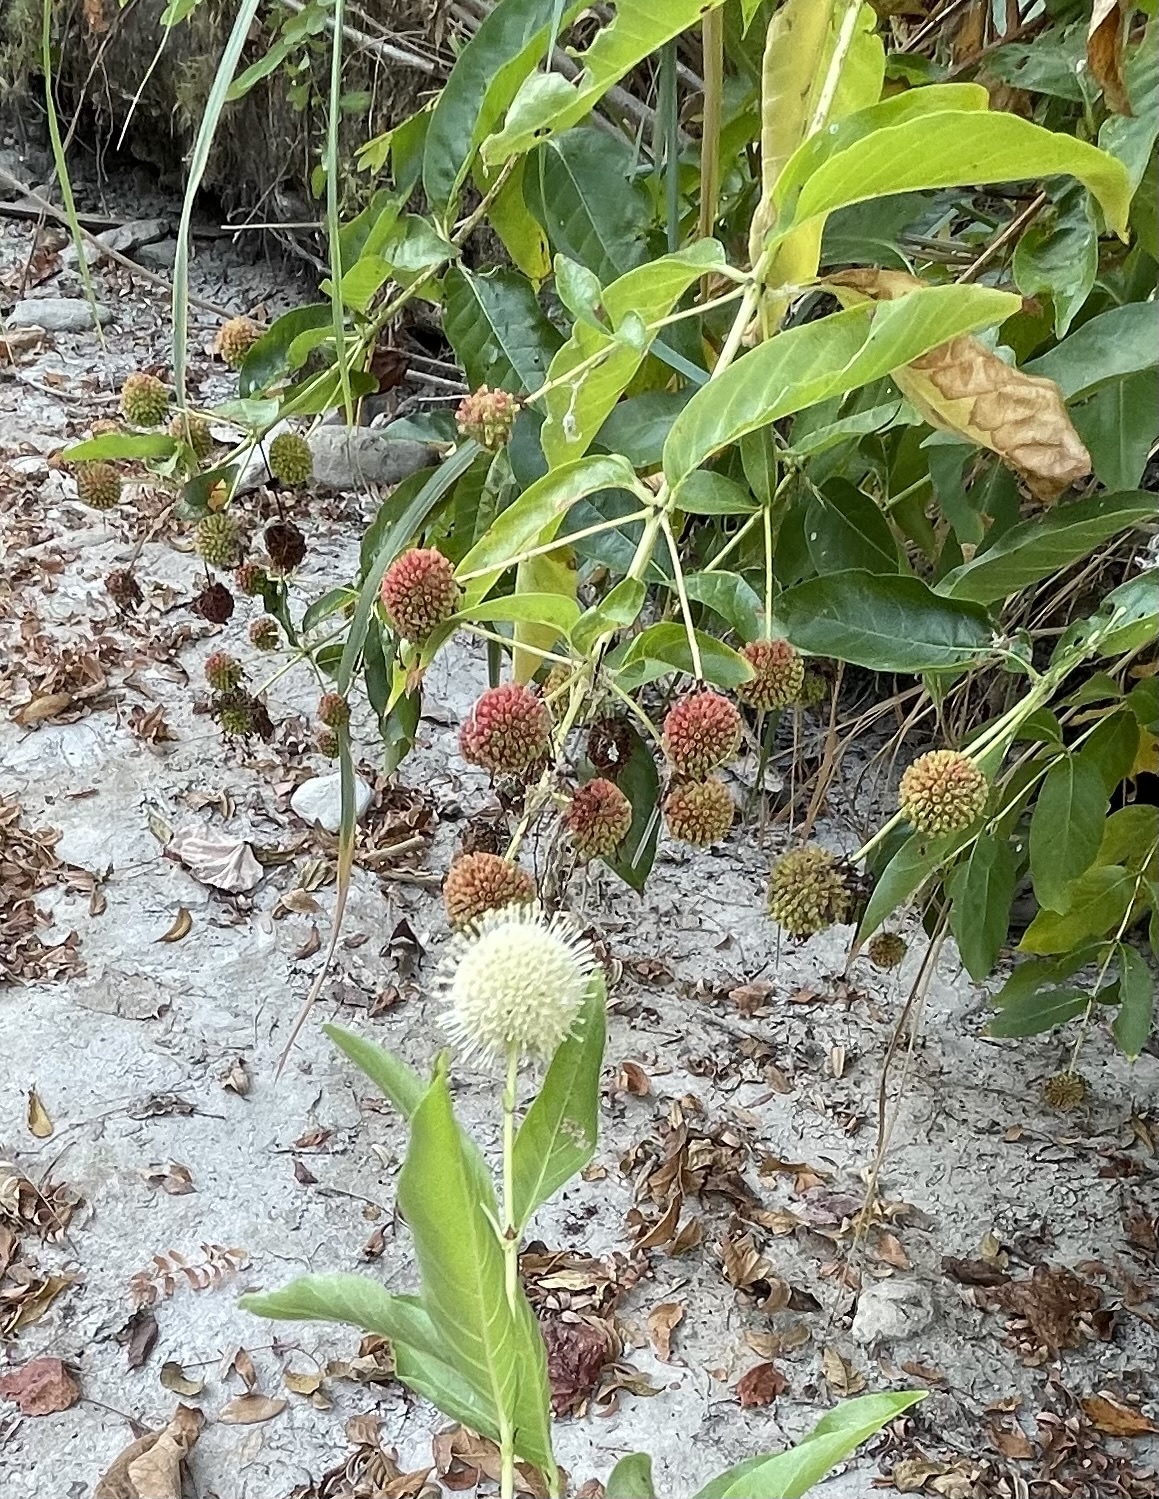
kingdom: Plantae
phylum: Tracheophyta
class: Magnoliopsida
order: Gentianales
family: Rubiaceae
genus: Cephalanthus
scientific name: Cephalanthus occidentalis
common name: Button-willow
